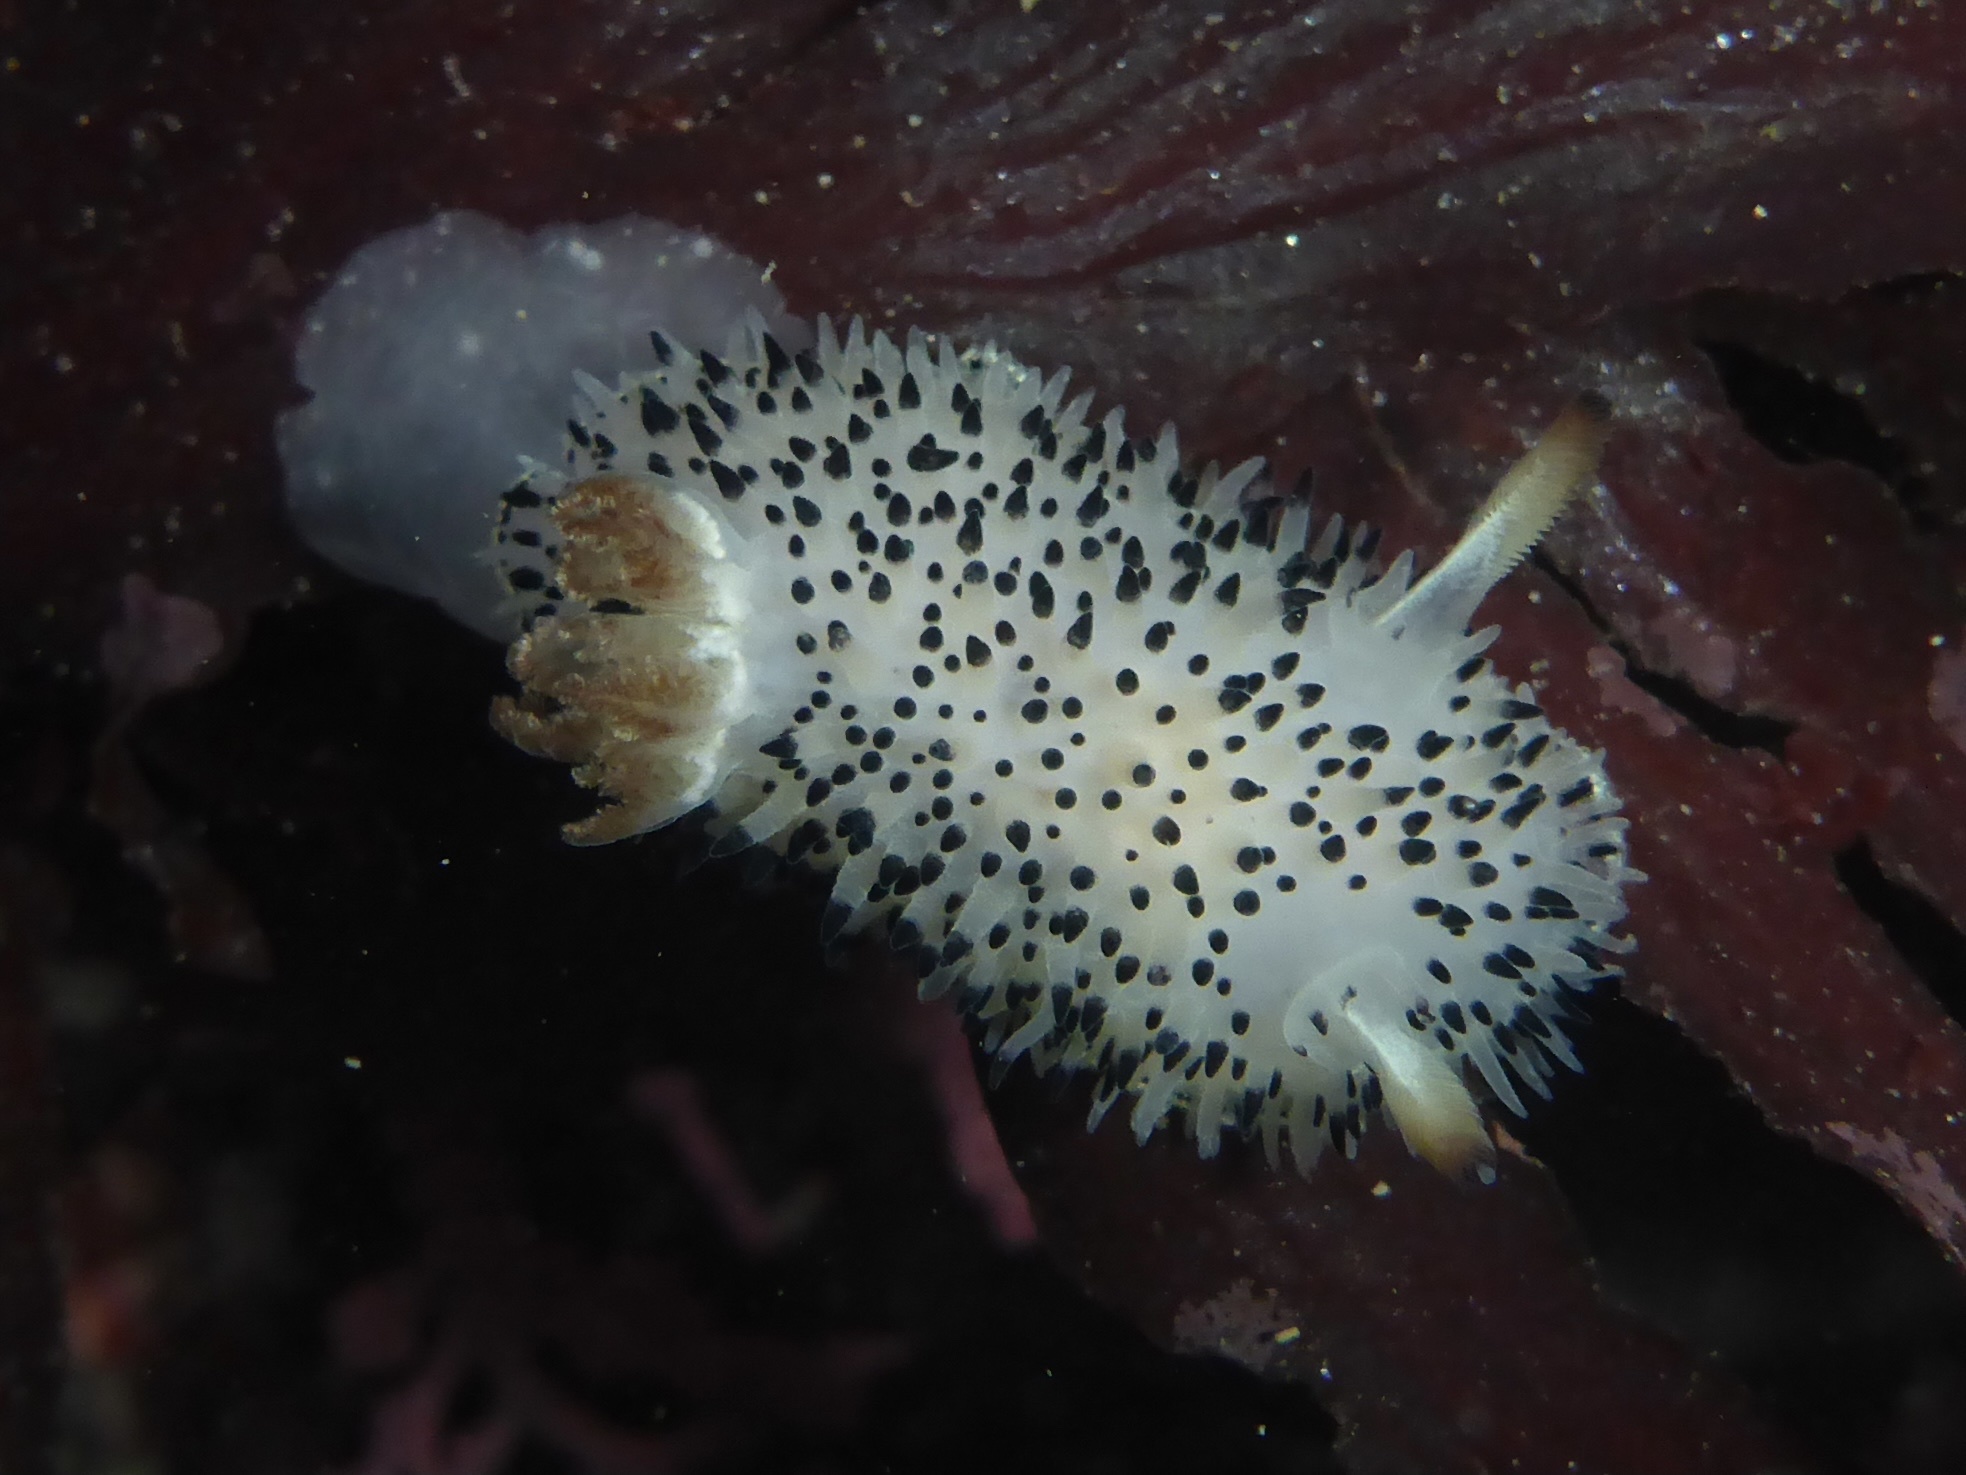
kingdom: Animalia
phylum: Mollusca
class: Gastropoda
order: Nudibranchia
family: Onchidorididae
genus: Acanthodoris
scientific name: Acanthodoris rhodoceras
